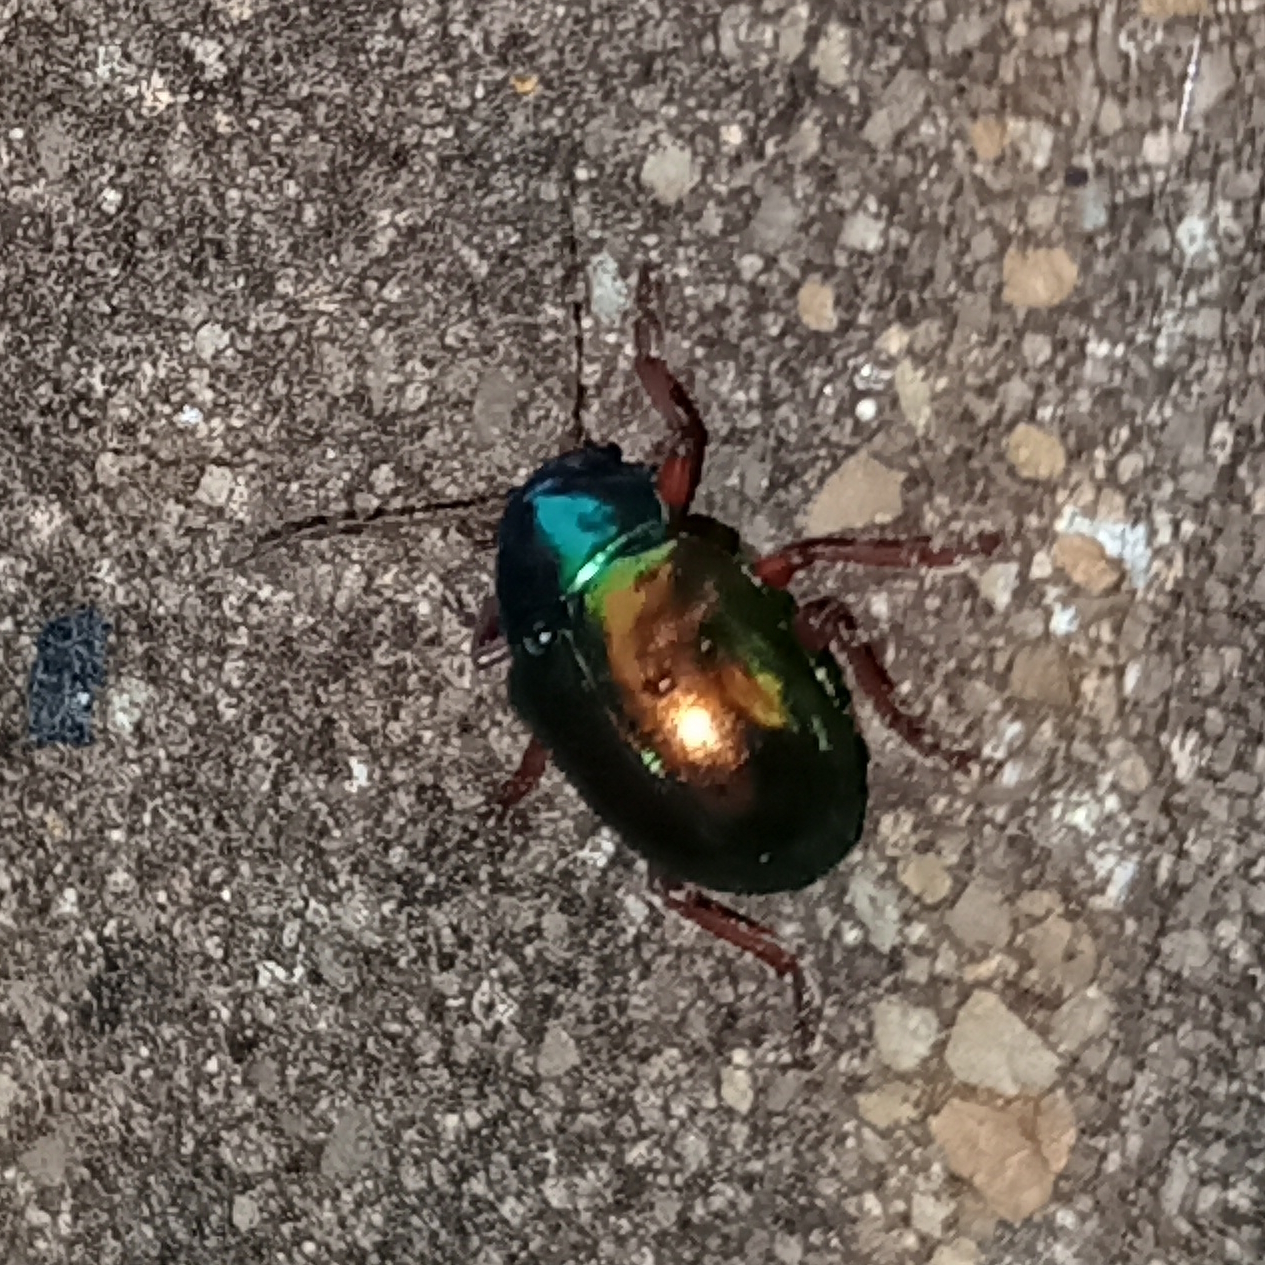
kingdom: Animalia
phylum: Arthropoda
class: Insecta
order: Coleoptera
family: Chrysomelidae
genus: Iphimeis
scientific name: Iphimeis
